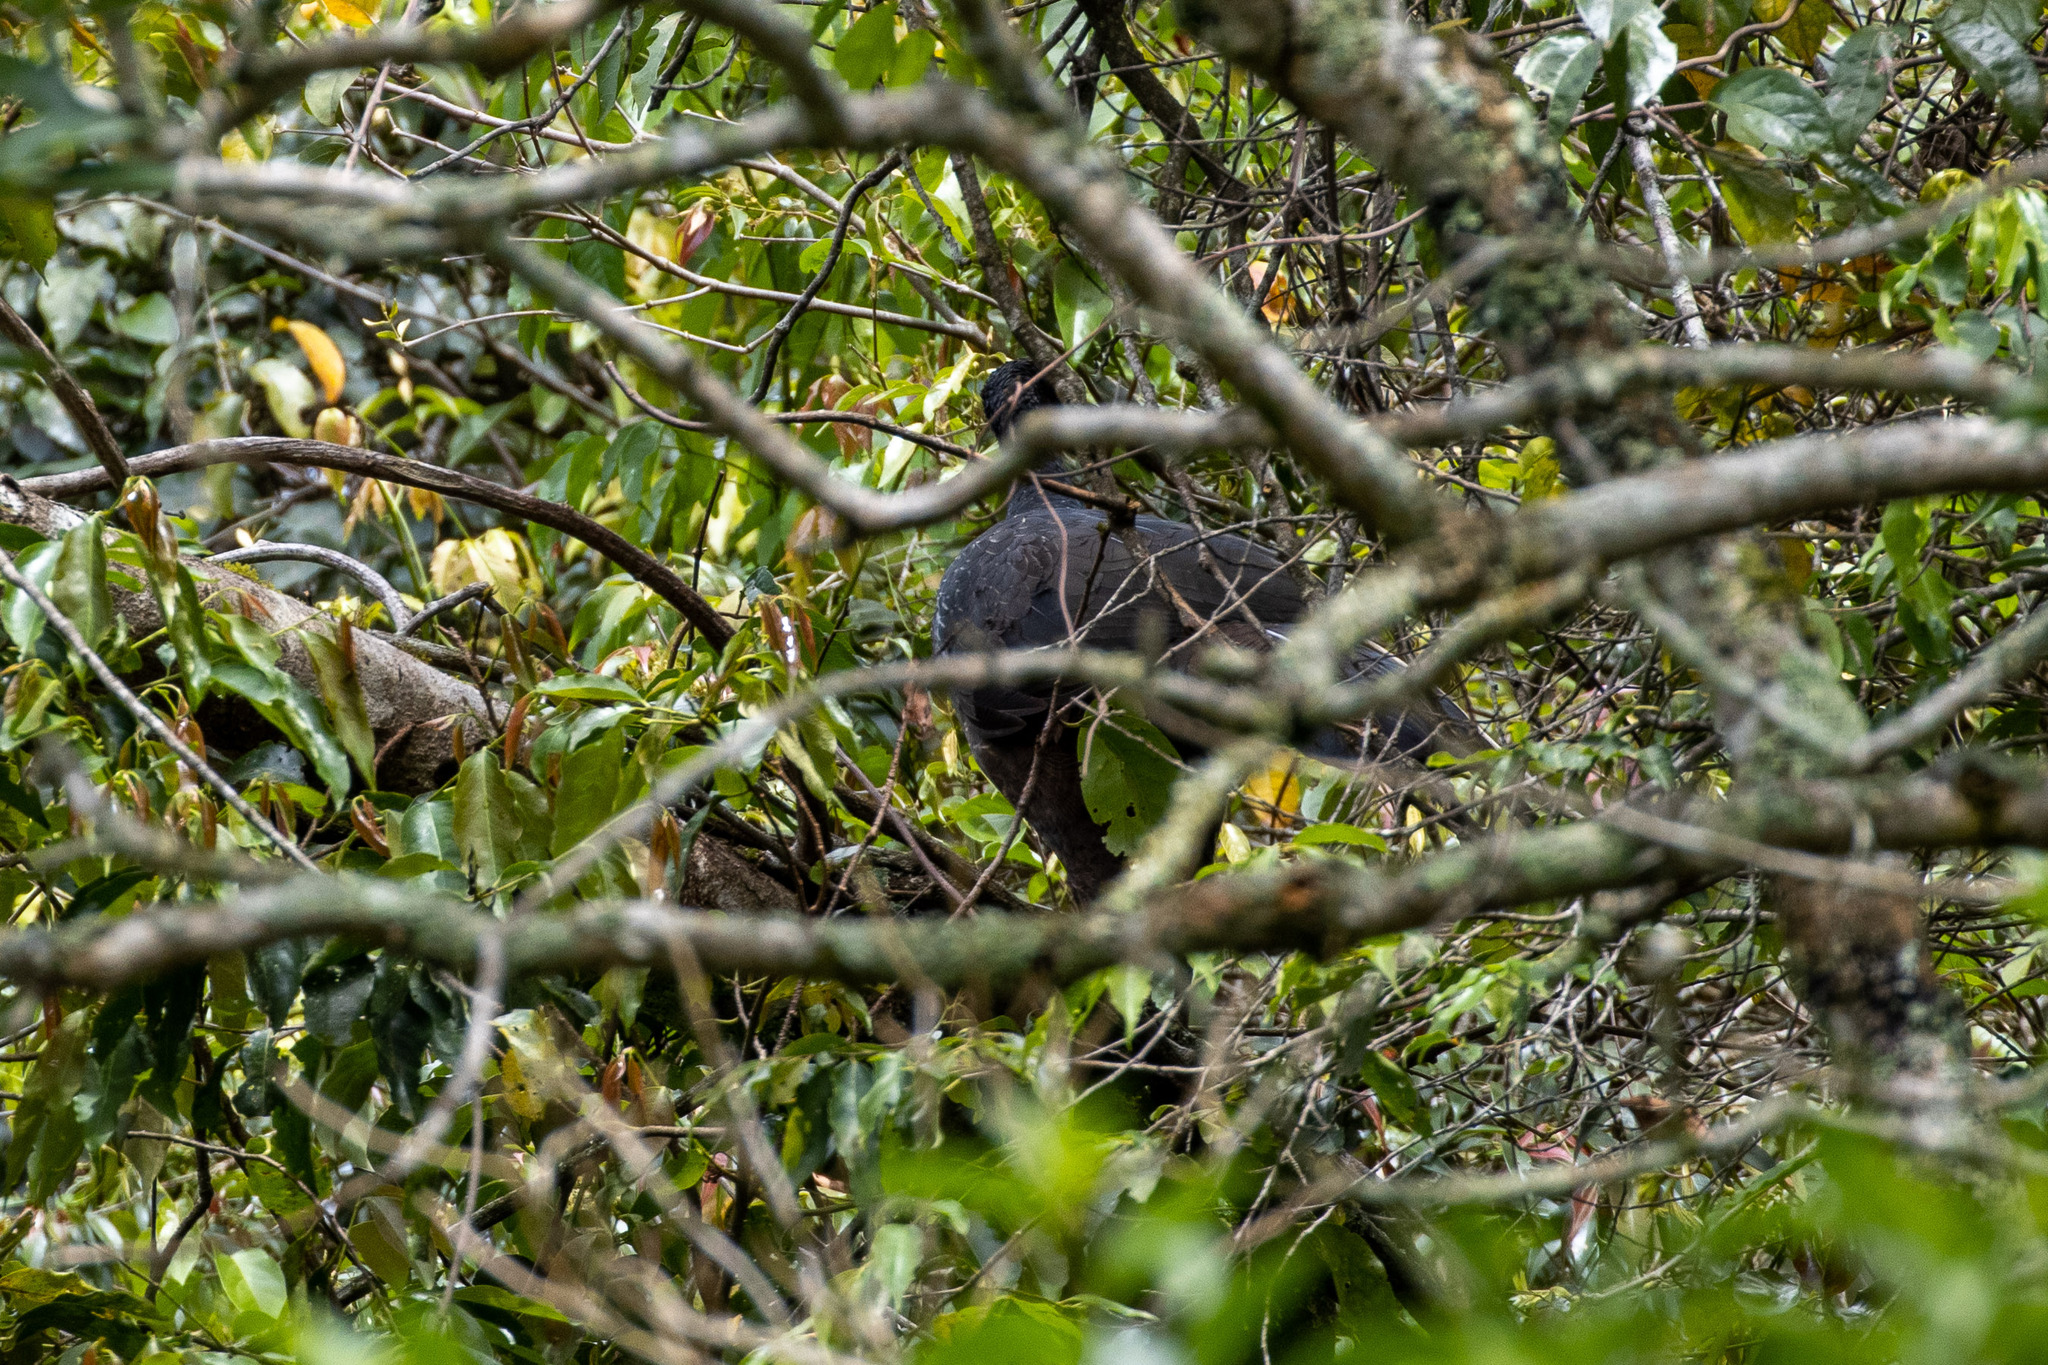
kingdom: Animalia
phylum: Chordata
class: Aves
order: Galliformes
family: Cracidae
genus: Penelope
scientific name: Penelope obscura
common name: Dusky-legged guan
